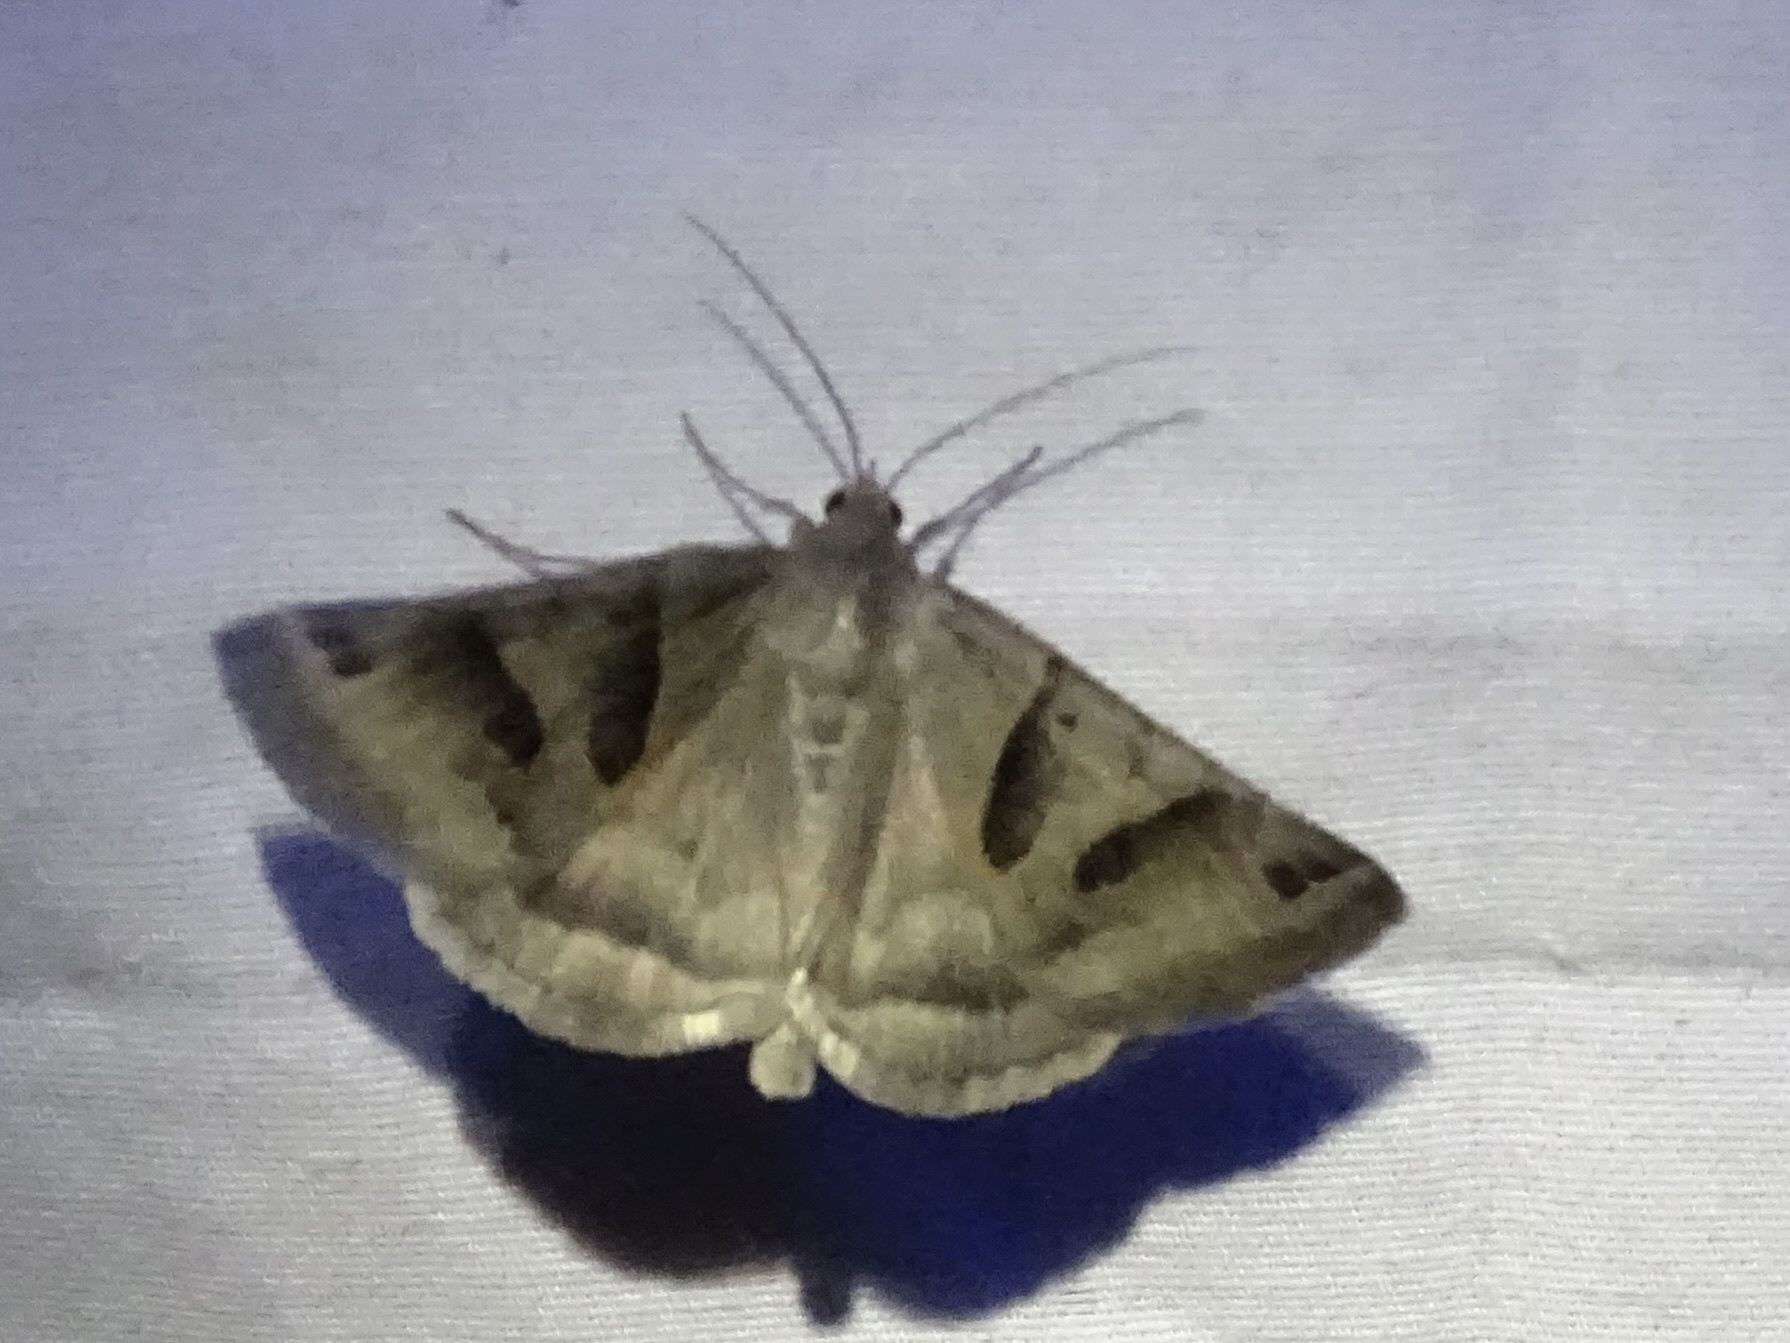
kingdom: Animalia
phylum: Arthropoda
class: Insecta
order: Lepidoptera
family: Erebidae
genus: Caenurgina
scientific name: Caenurgina erechtea
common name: Forage looper moth
